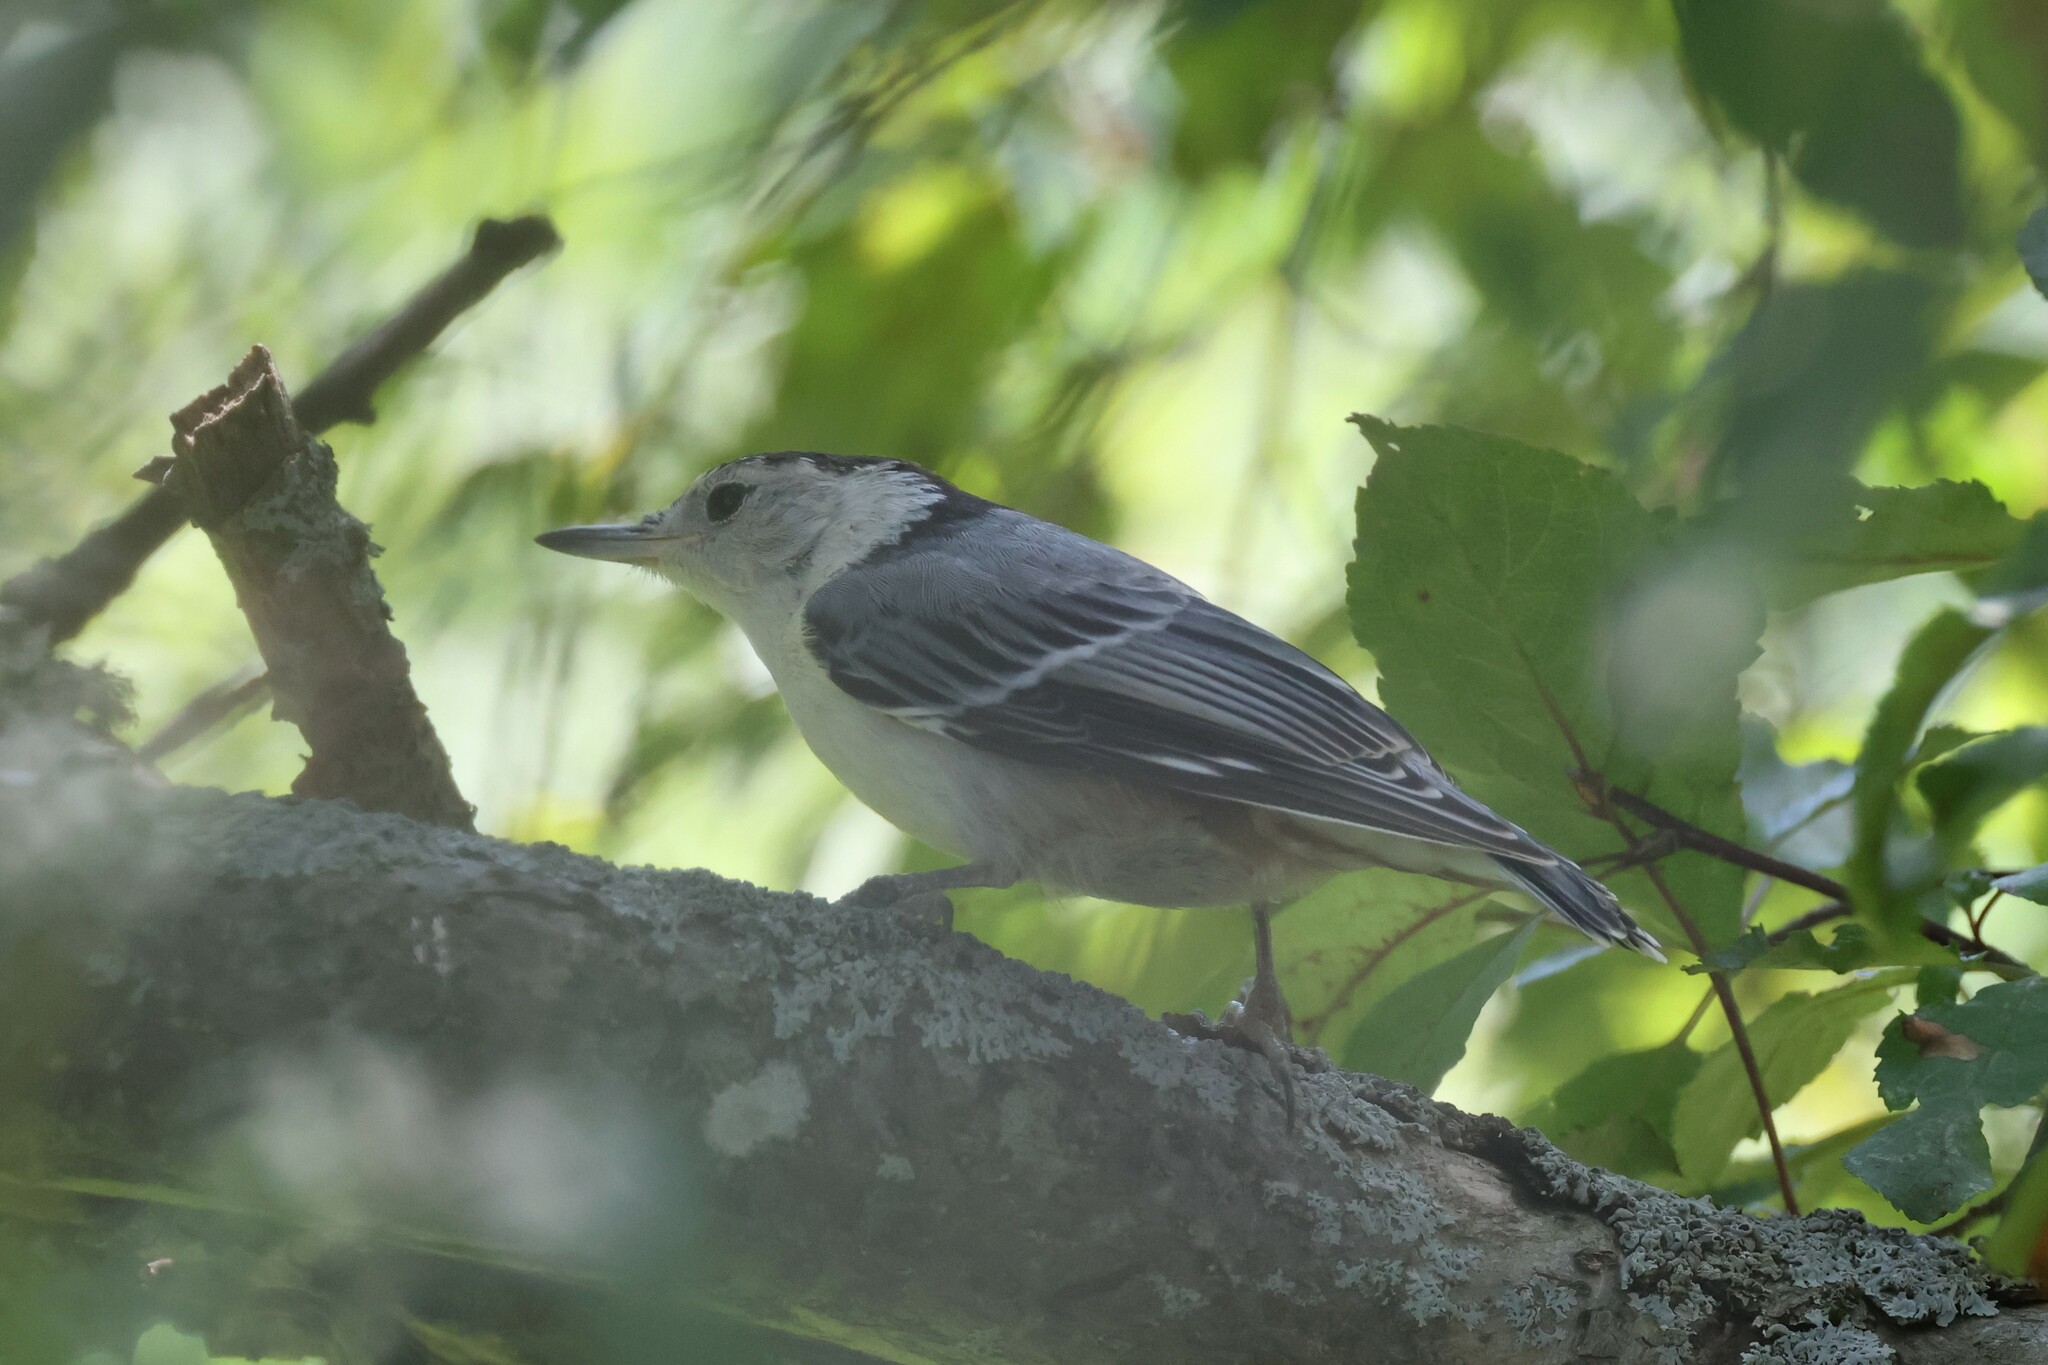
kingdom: Animalia
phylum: Chordata
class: Aves
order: Passeriformes
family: Sittidae
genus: Sitta
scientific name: Sitta carolinensis
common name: White-breasted nuthatch
